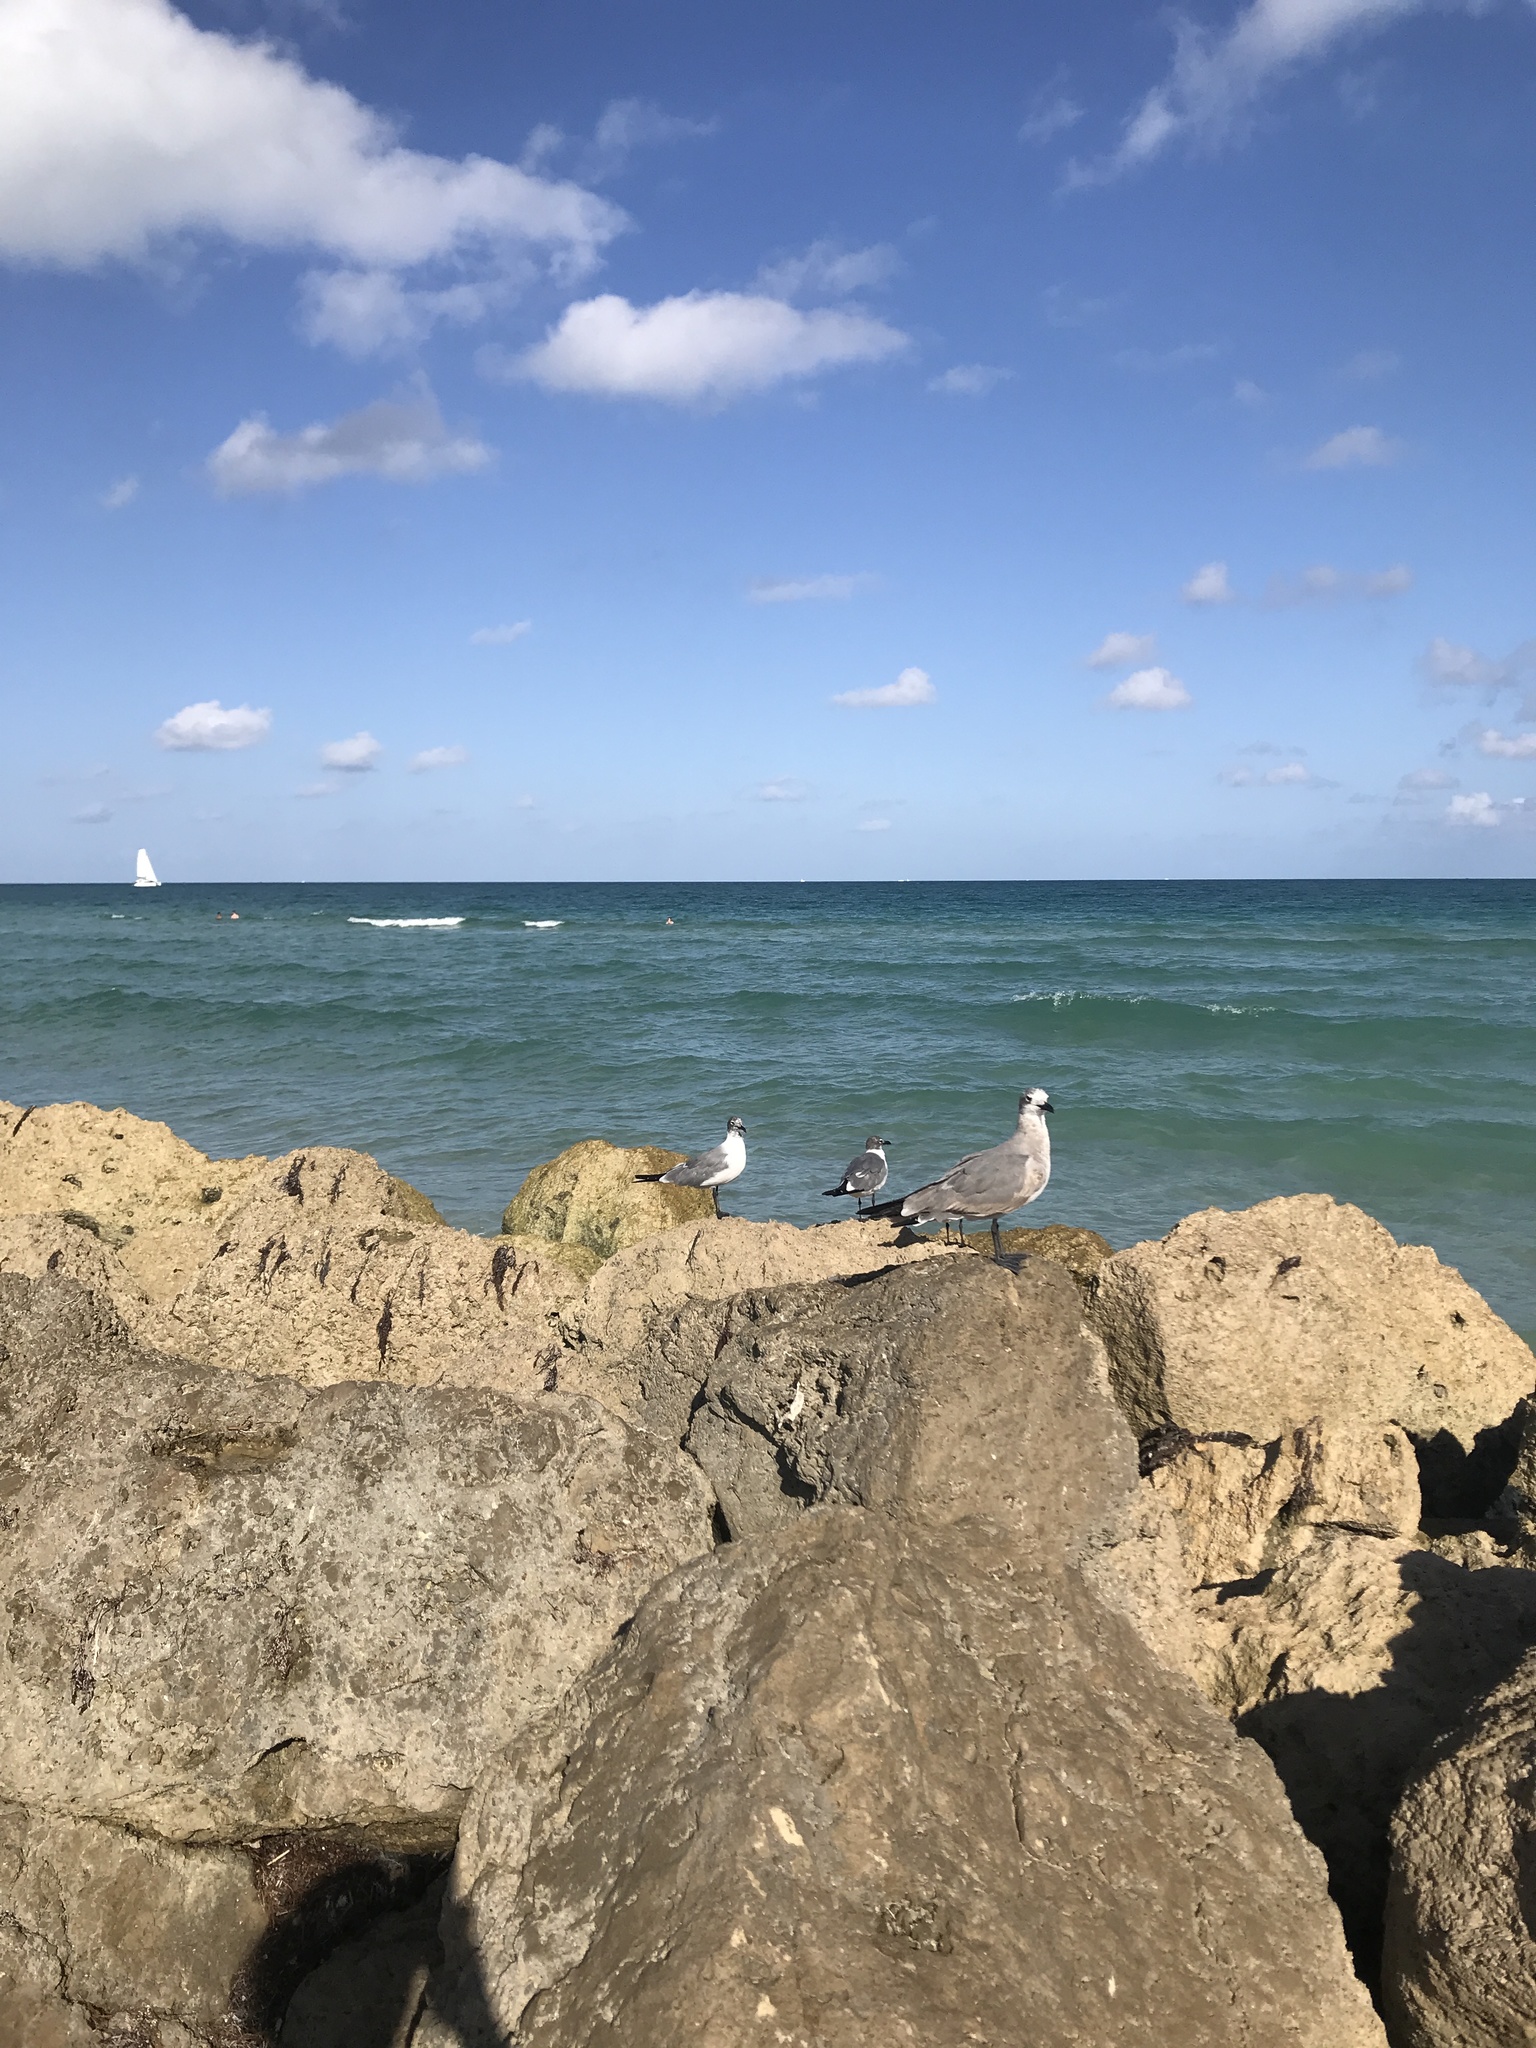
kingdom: Animalia
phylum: Chordata
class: Aves
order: Charadriiformes
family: Laridae
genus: Leucophaeus
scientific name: Leucophaeus atricilla
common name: Laughing gull
